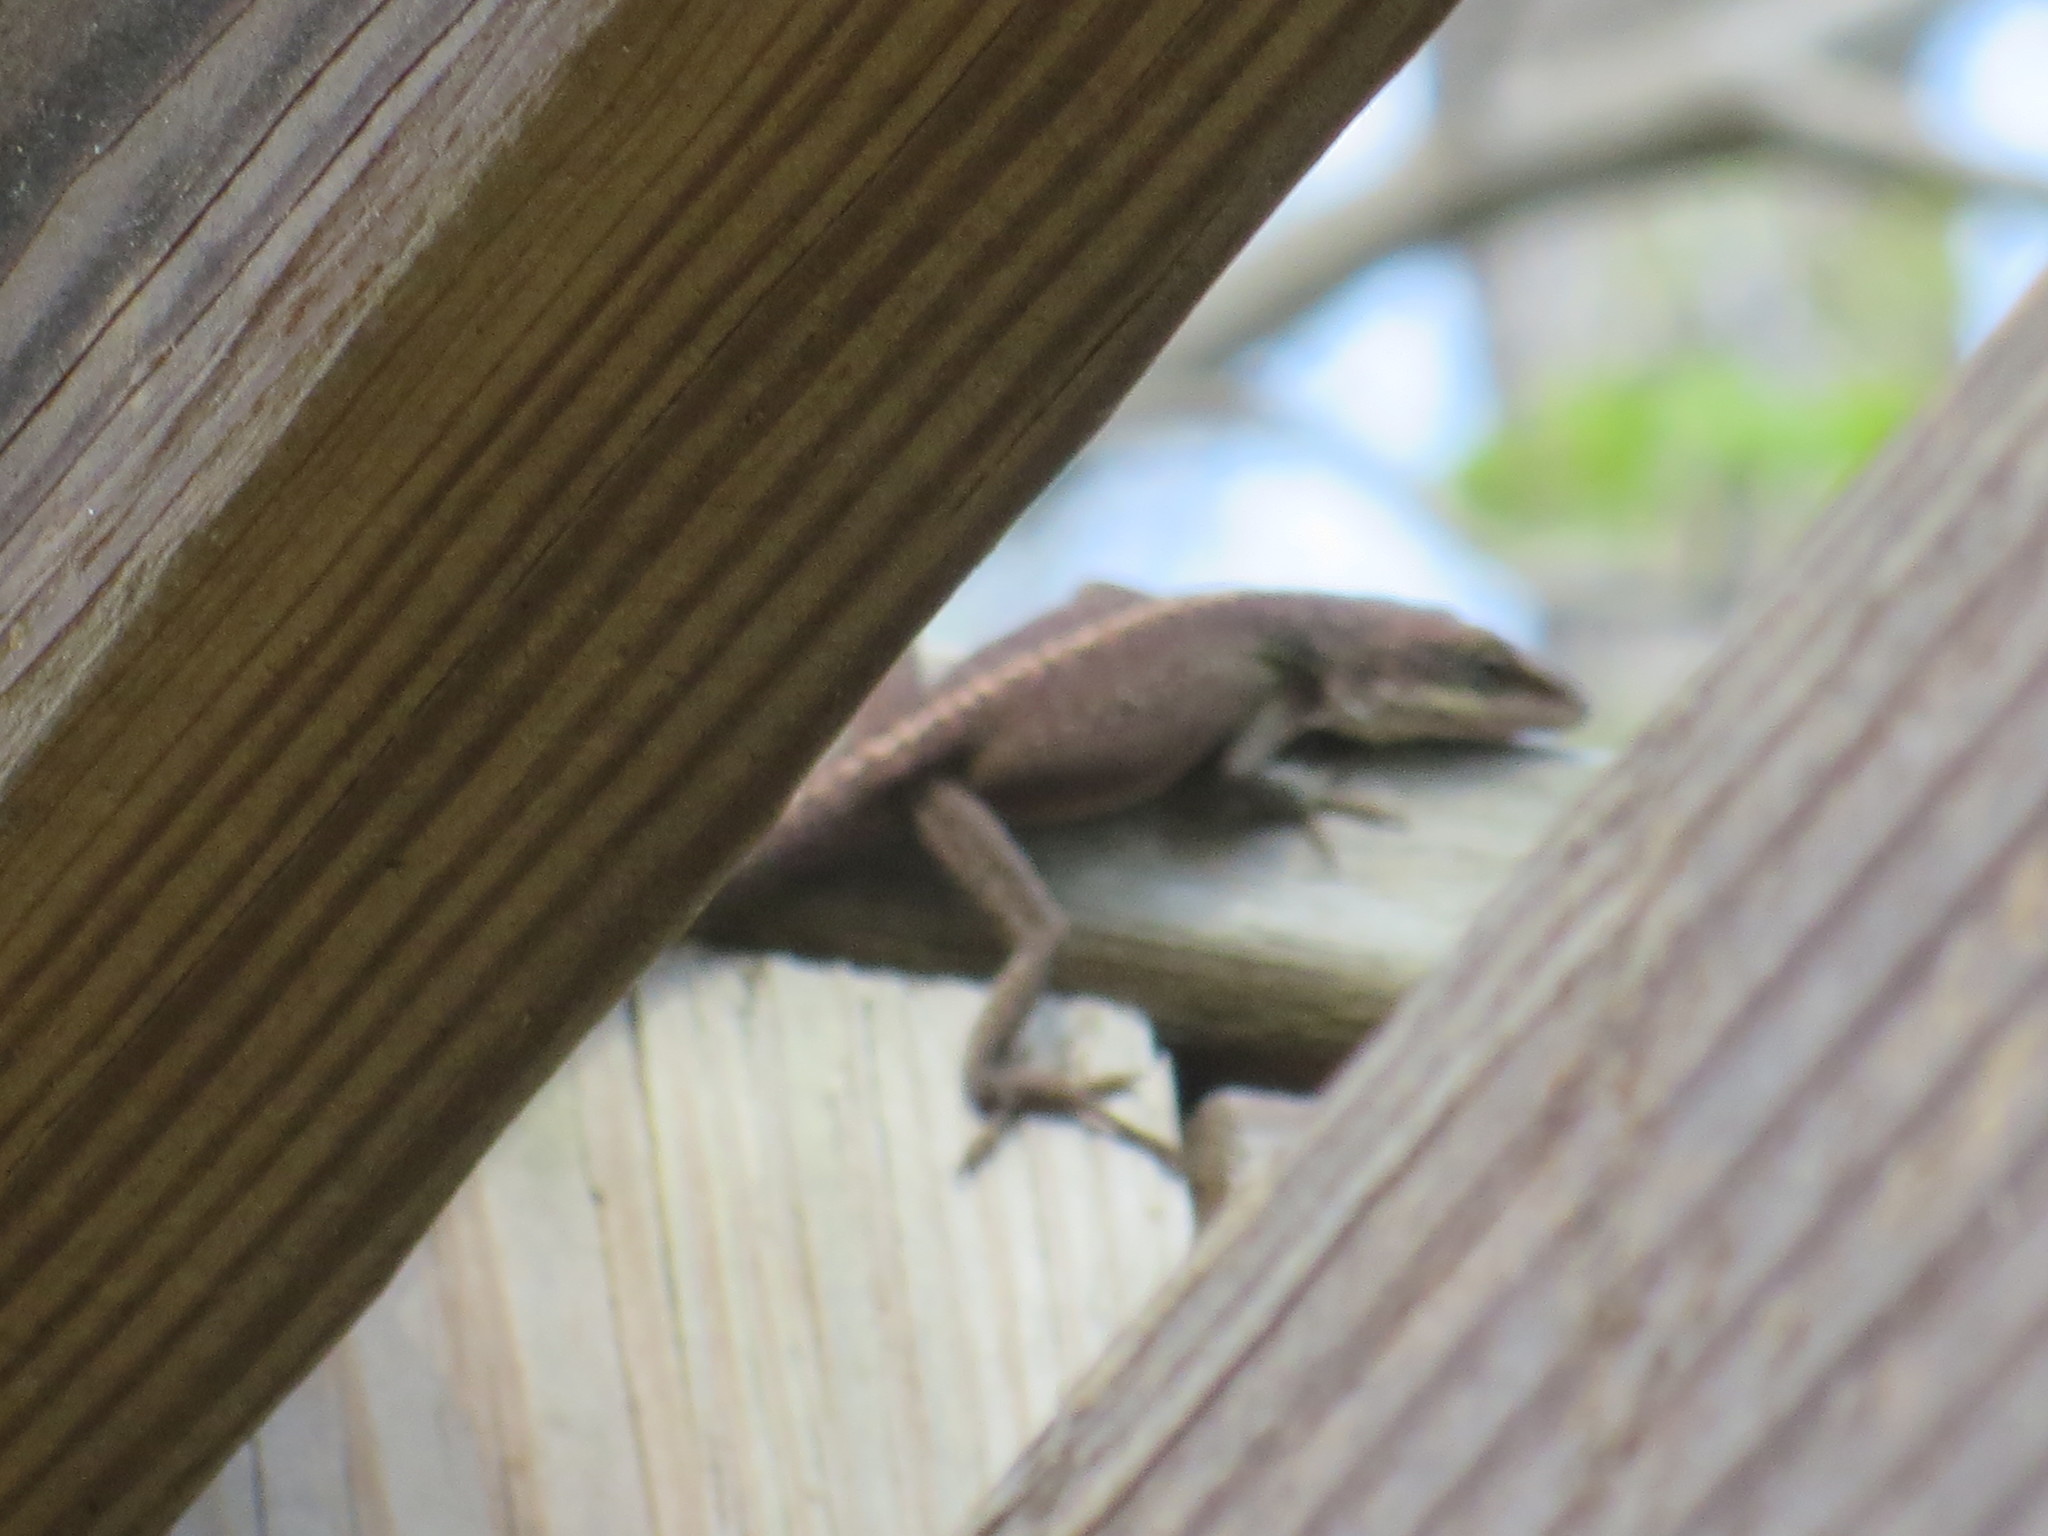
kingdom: Animalia
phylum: Chordata
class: Squamata
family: Dactyloidae
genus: Anolis
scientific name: Anolis carolinensis
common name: Green anole
